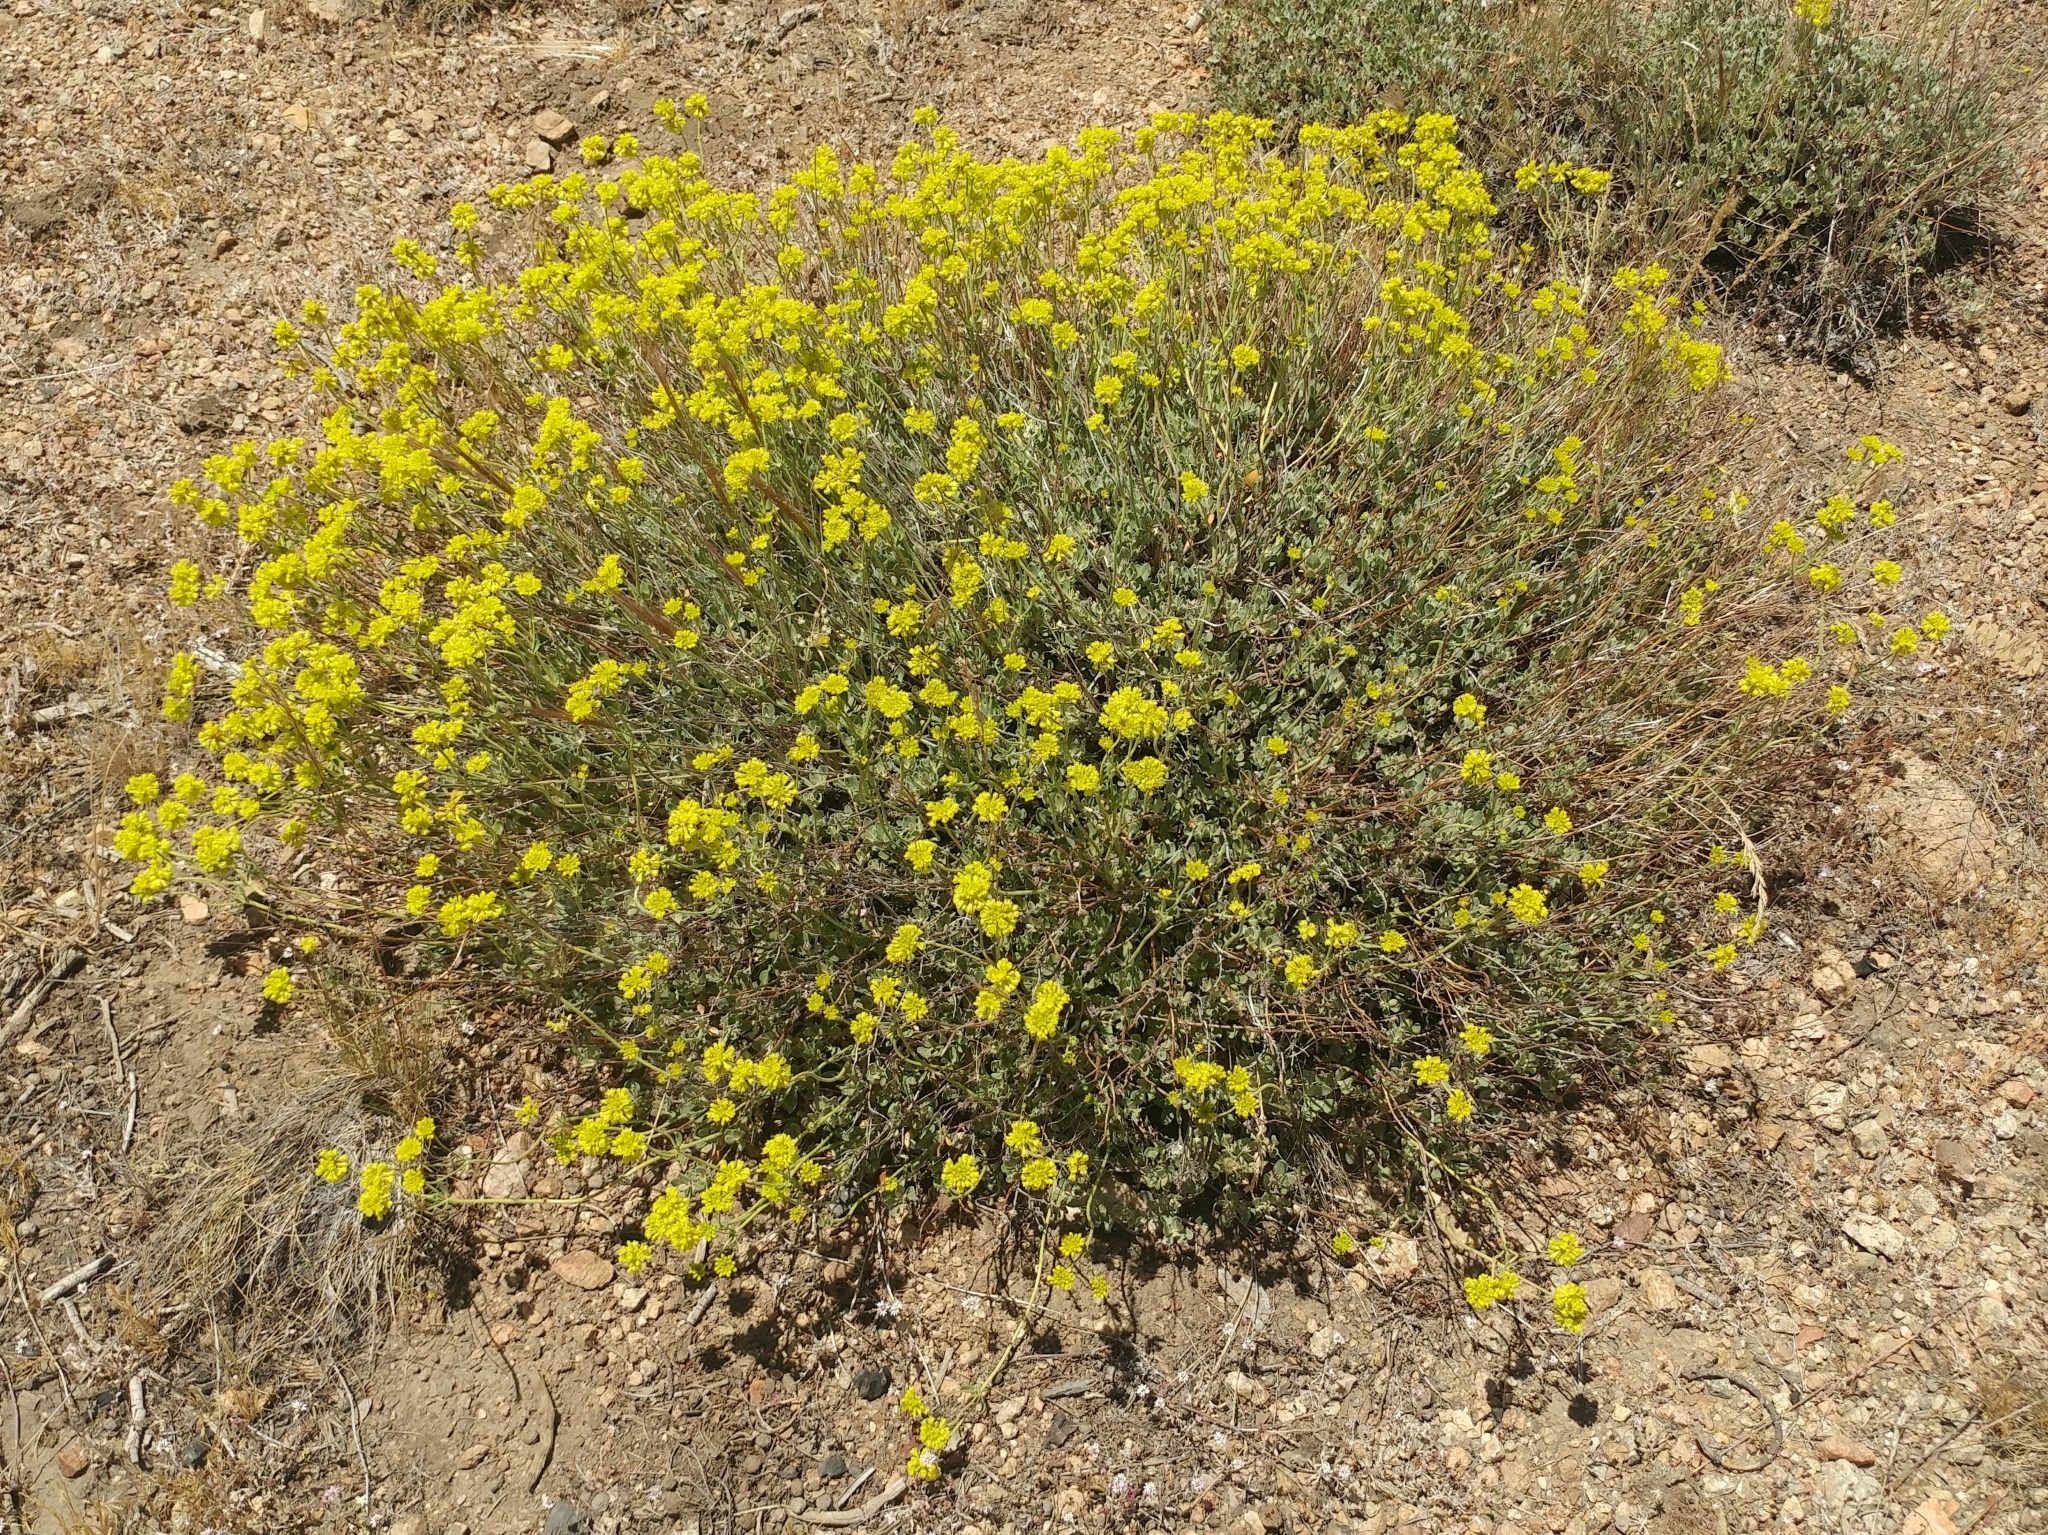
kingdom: Plantae
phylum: Tracheophyta
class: Magnoliopsida
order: Caryophyllales
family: Polygonaceae
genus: Eriogonum
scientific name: Eriogonum umbellatum
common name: Sulfur-buckwheat
